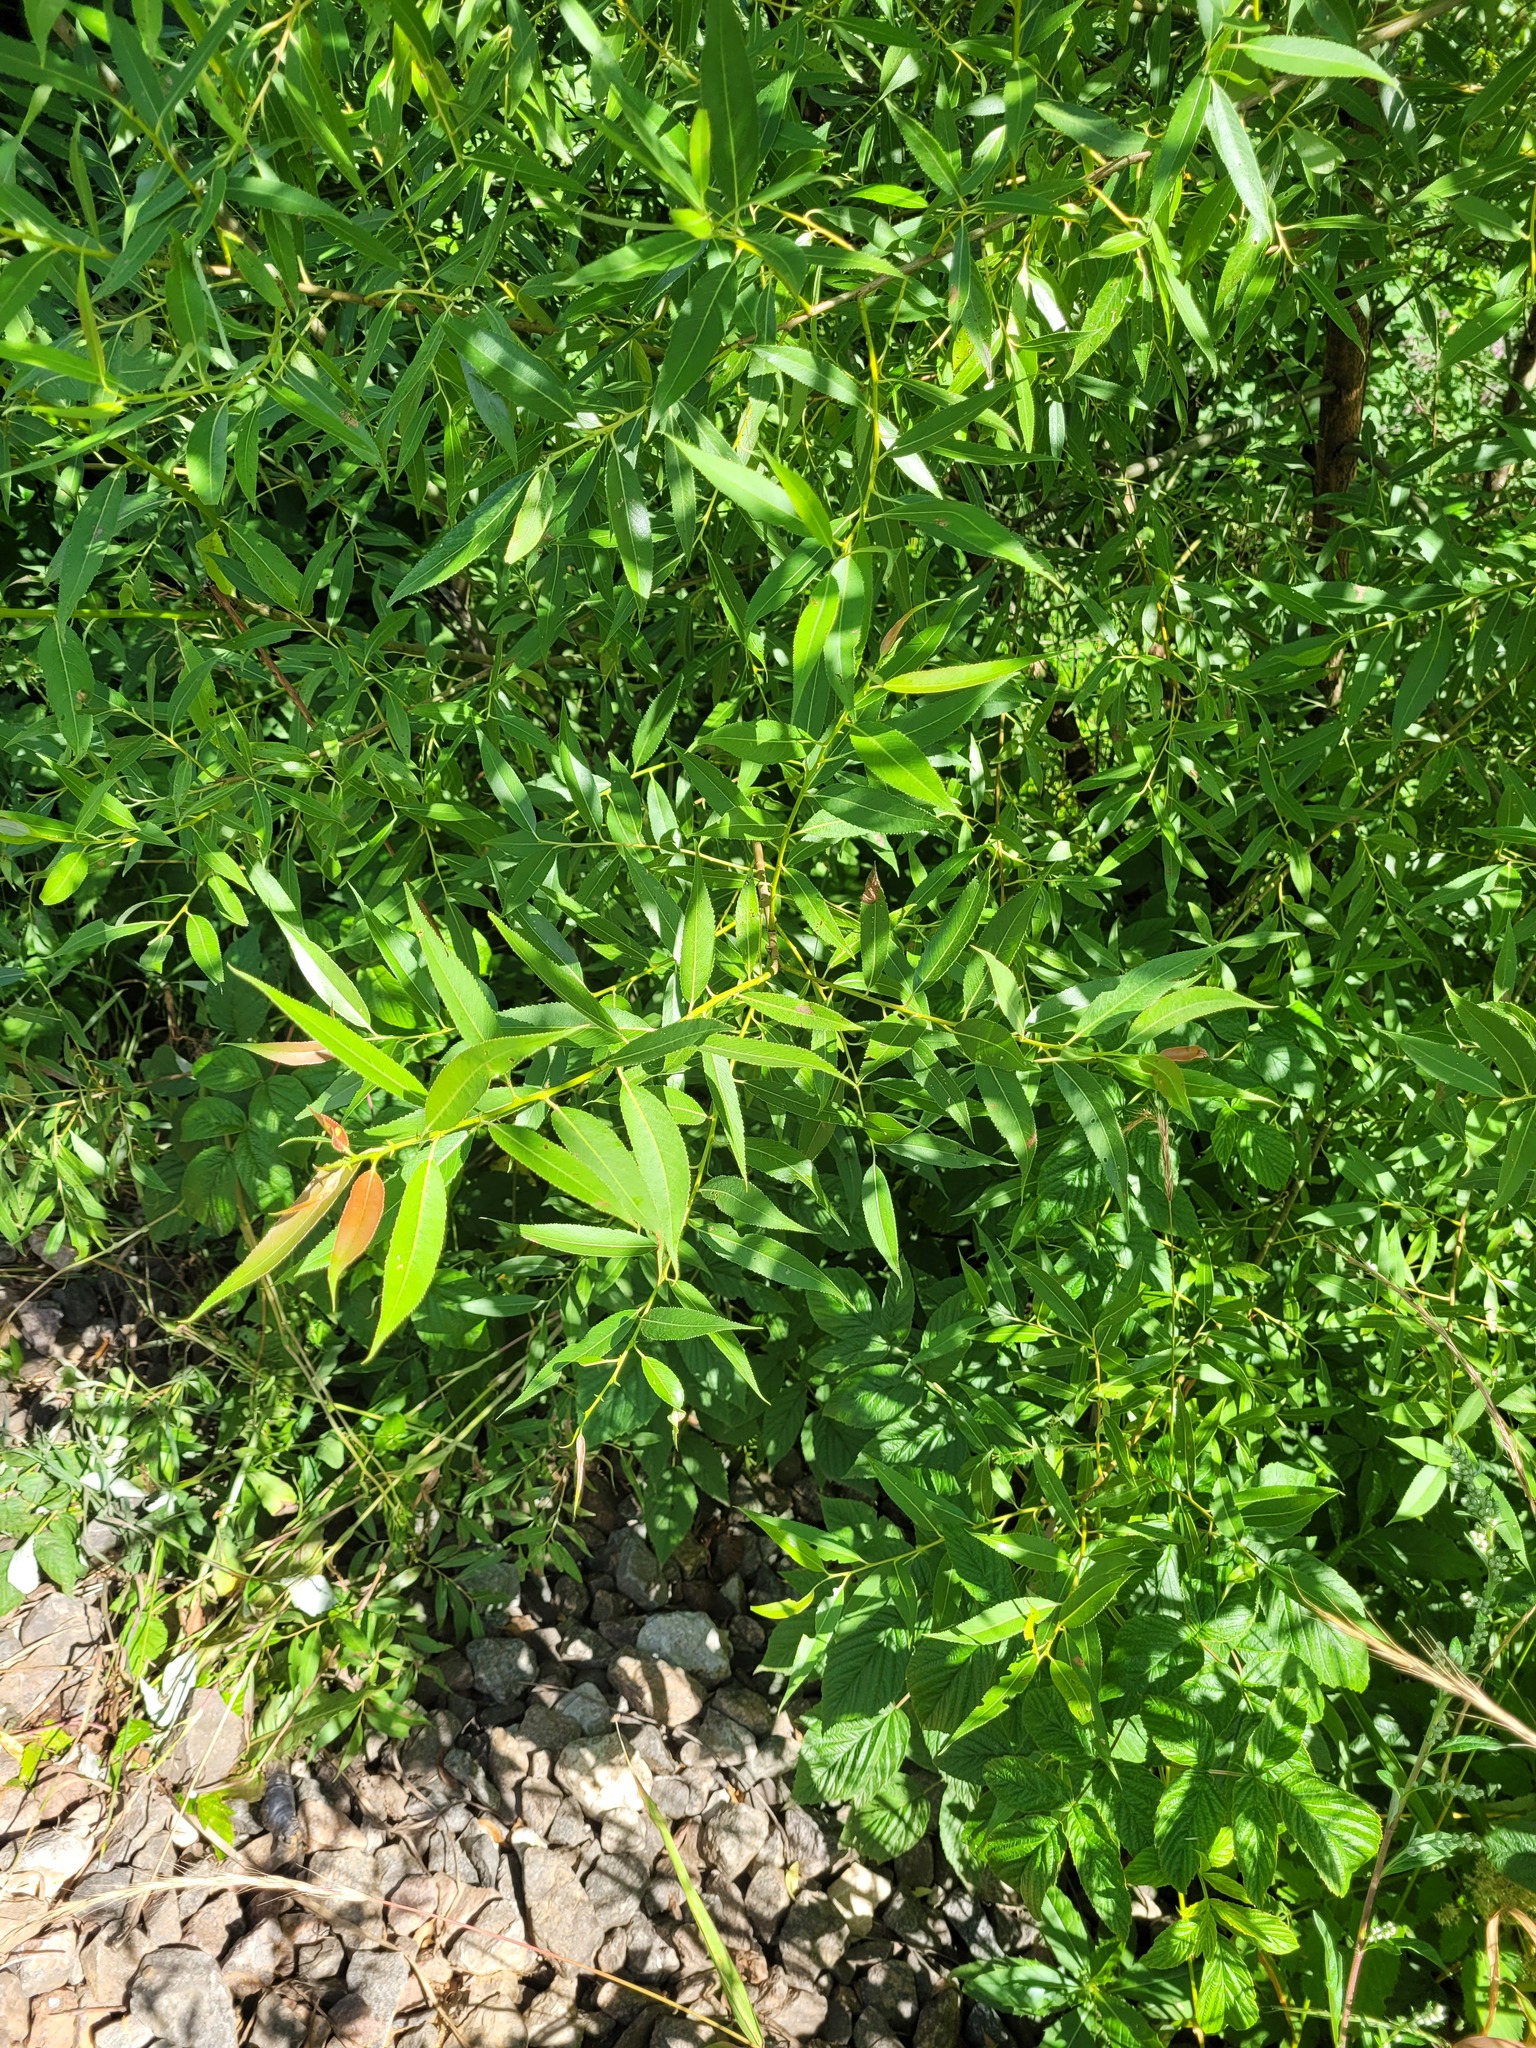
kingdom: Plantae
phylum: Tracheophyta
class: Magnoliopsida
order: Malpighiales
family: Salicaceae
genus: Salix
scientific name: Salix alba
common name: White willow
